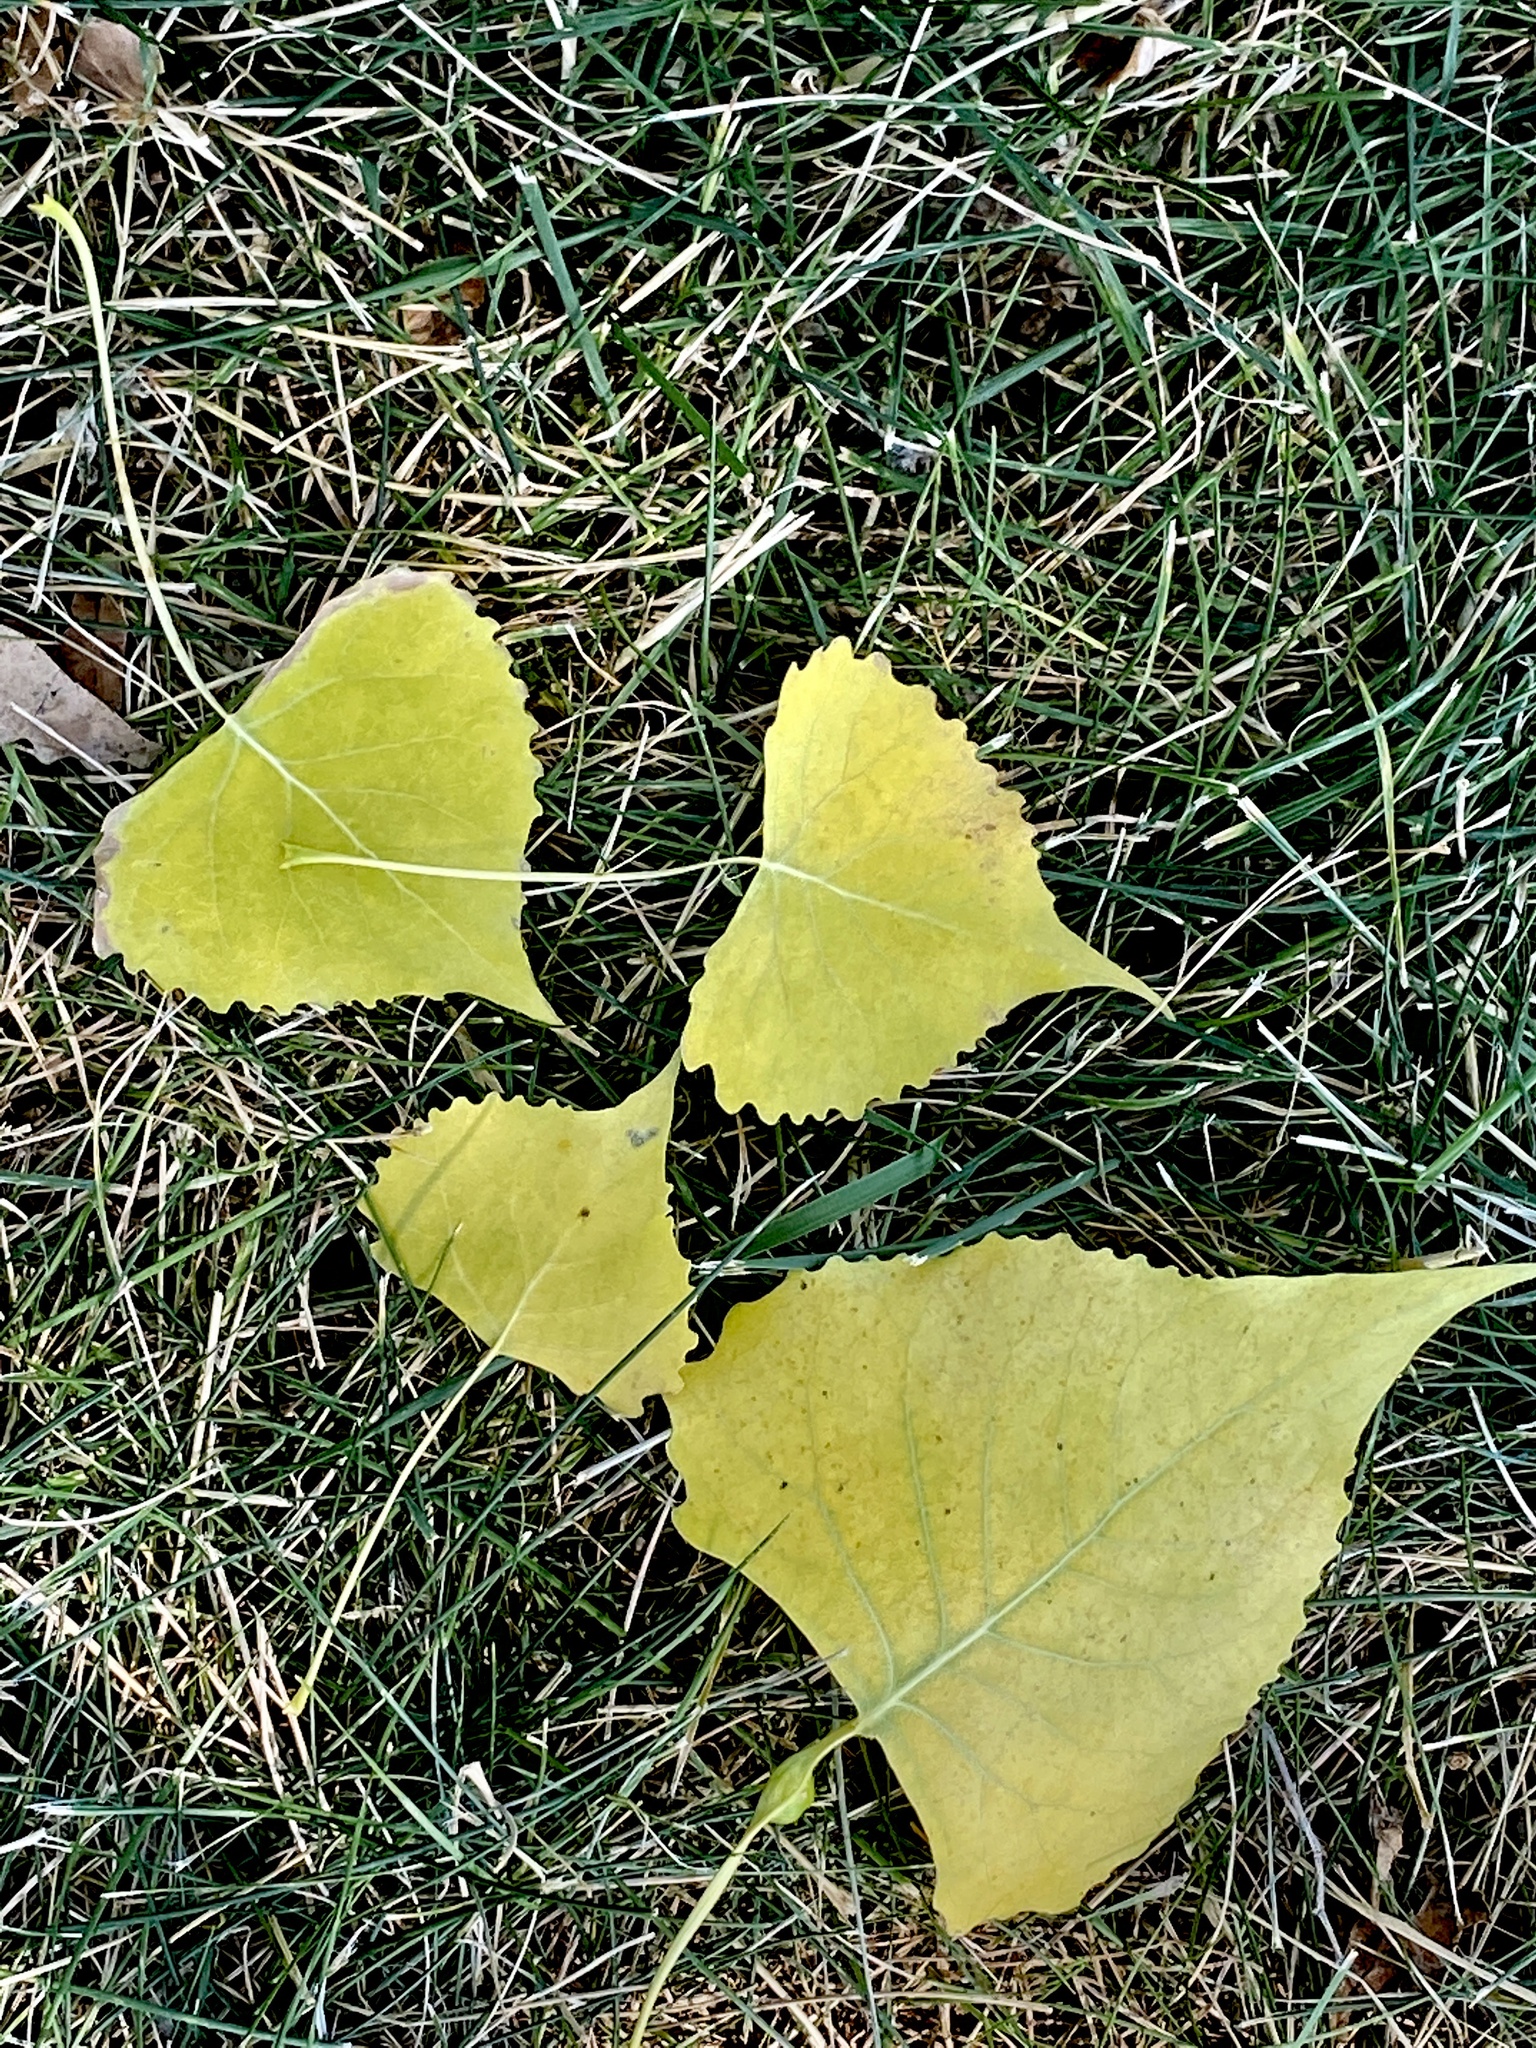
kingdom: Plantae
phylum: Tracheophyta
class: Magnoliopsida
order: Malpighiales
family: Salicaceae
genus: Populus
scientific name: Populus deltoides
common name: Eastern cottonwood
